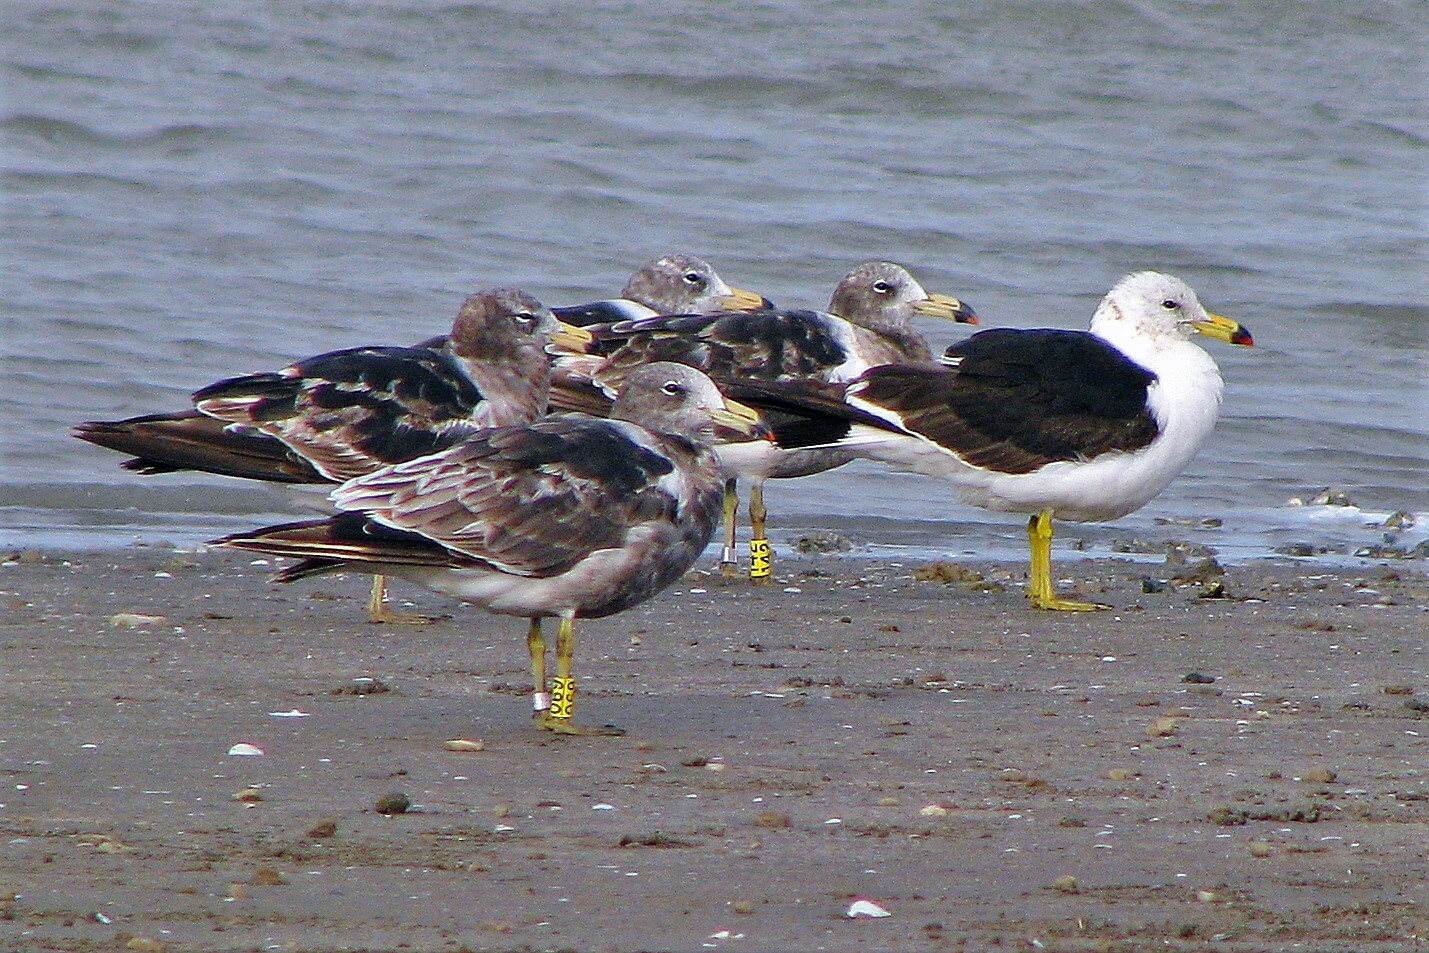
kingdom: Animalia
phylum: Chordata
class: Aves
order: Charadriiformes
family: Laridae
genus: Larus
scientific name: Larus atlanticus
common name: Olrog's gull
